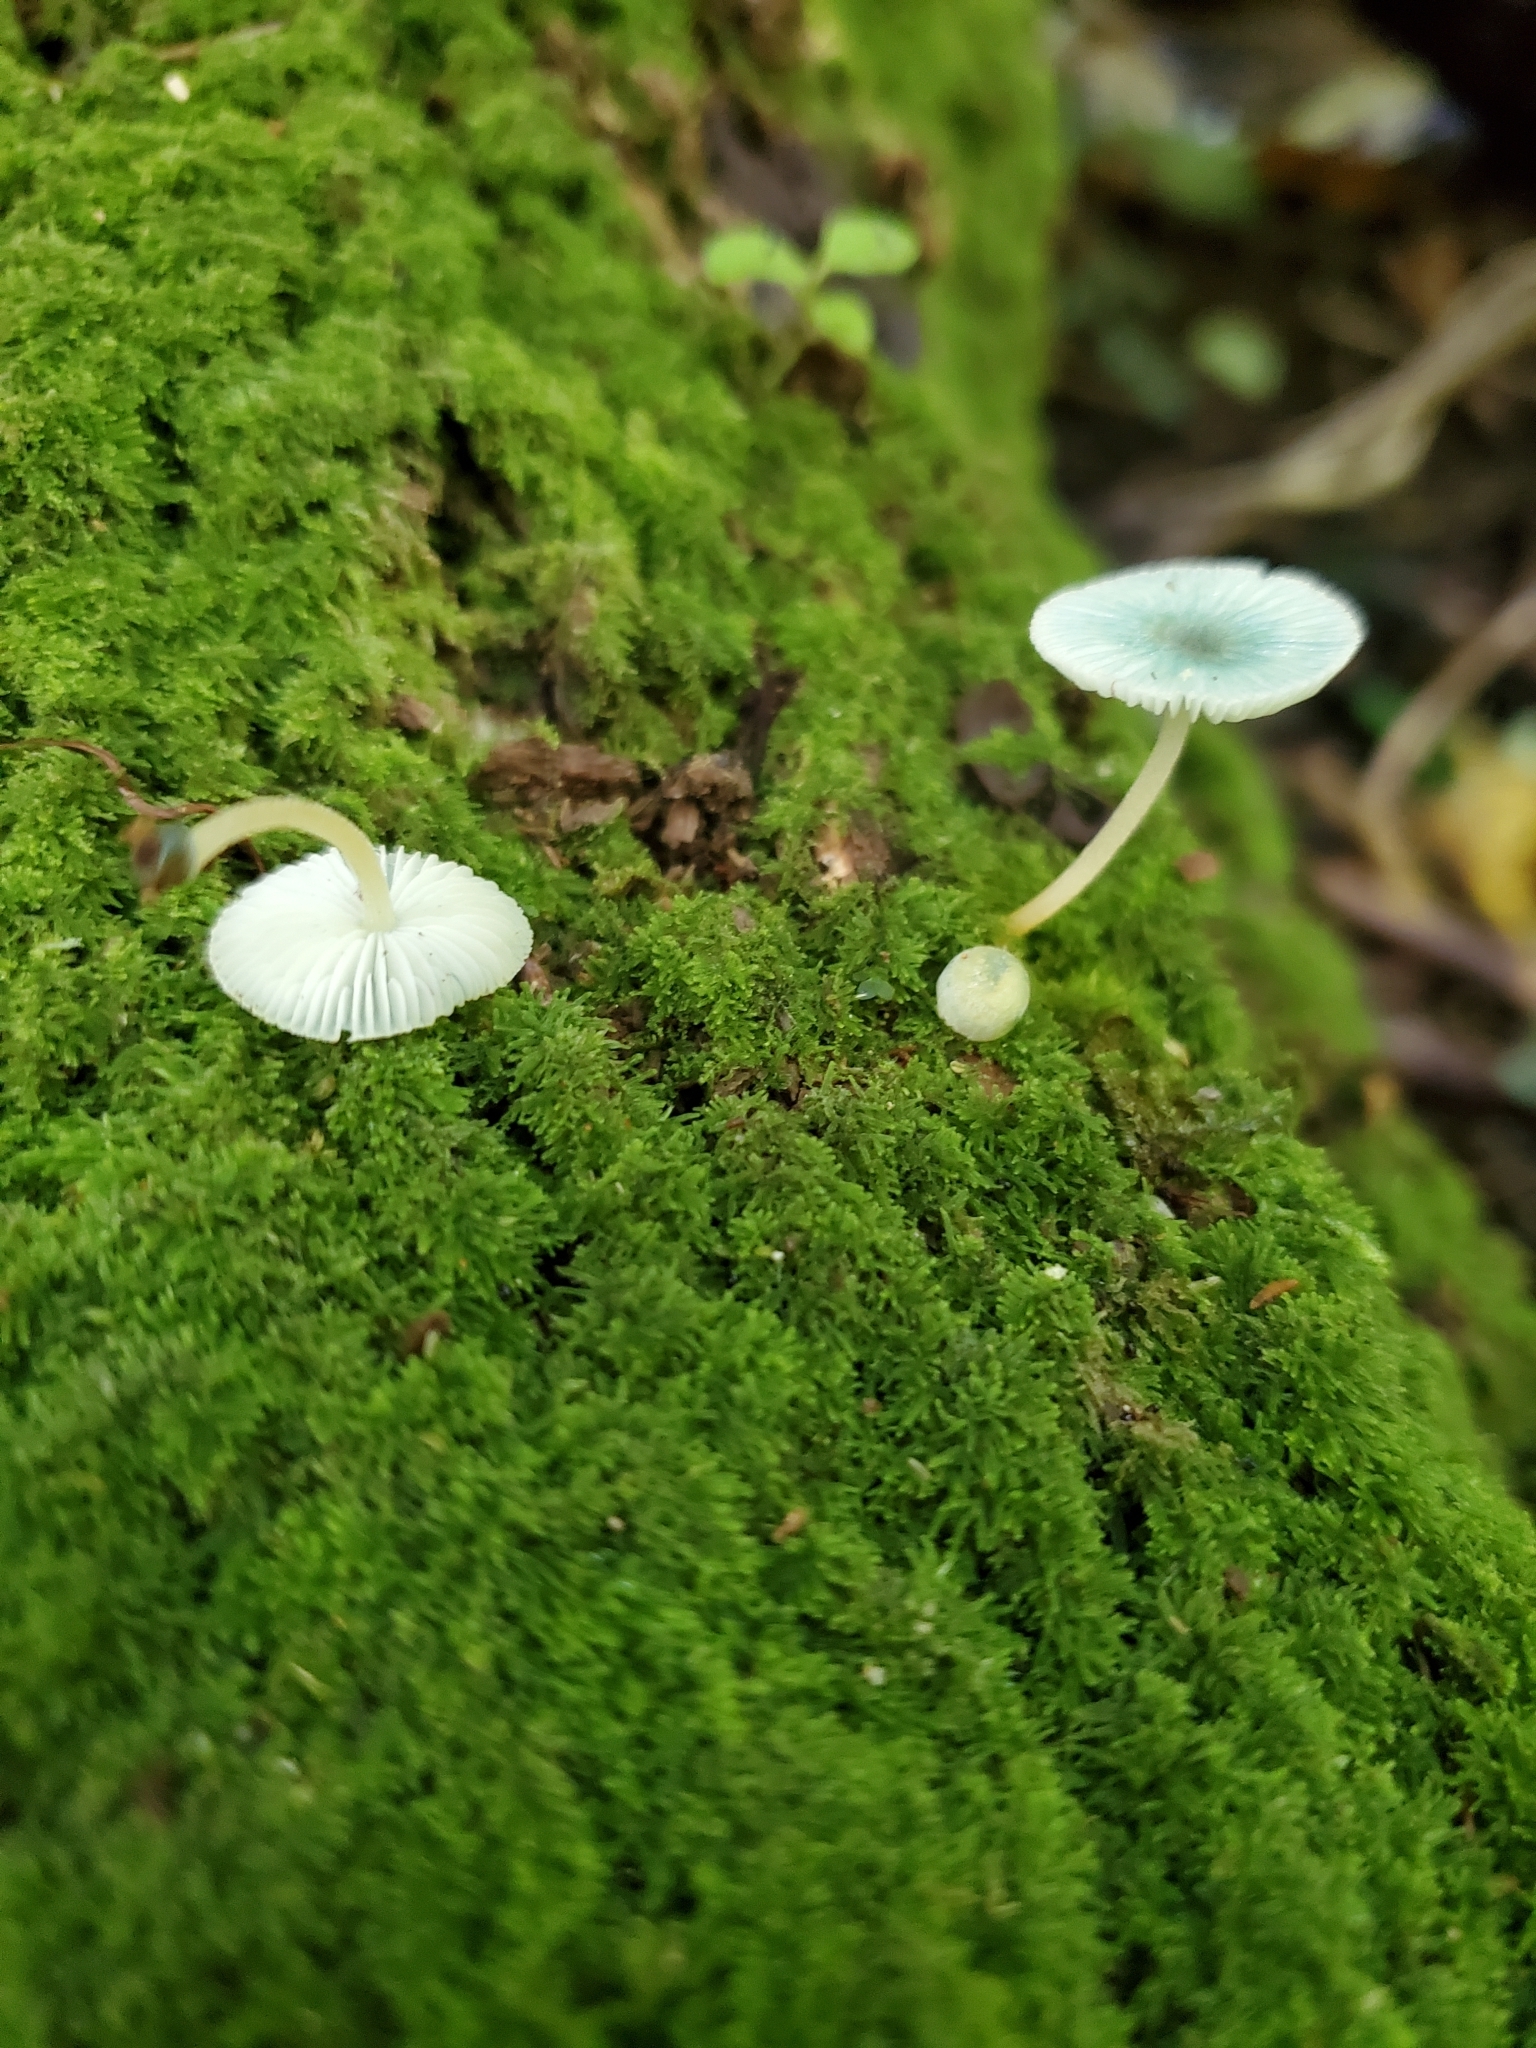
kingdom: Fungi
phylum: Basidiomycota
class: Agaricomycetes
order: Agaricales
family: Mycenaceae
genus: Mycena
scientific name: Mycena interrupta
